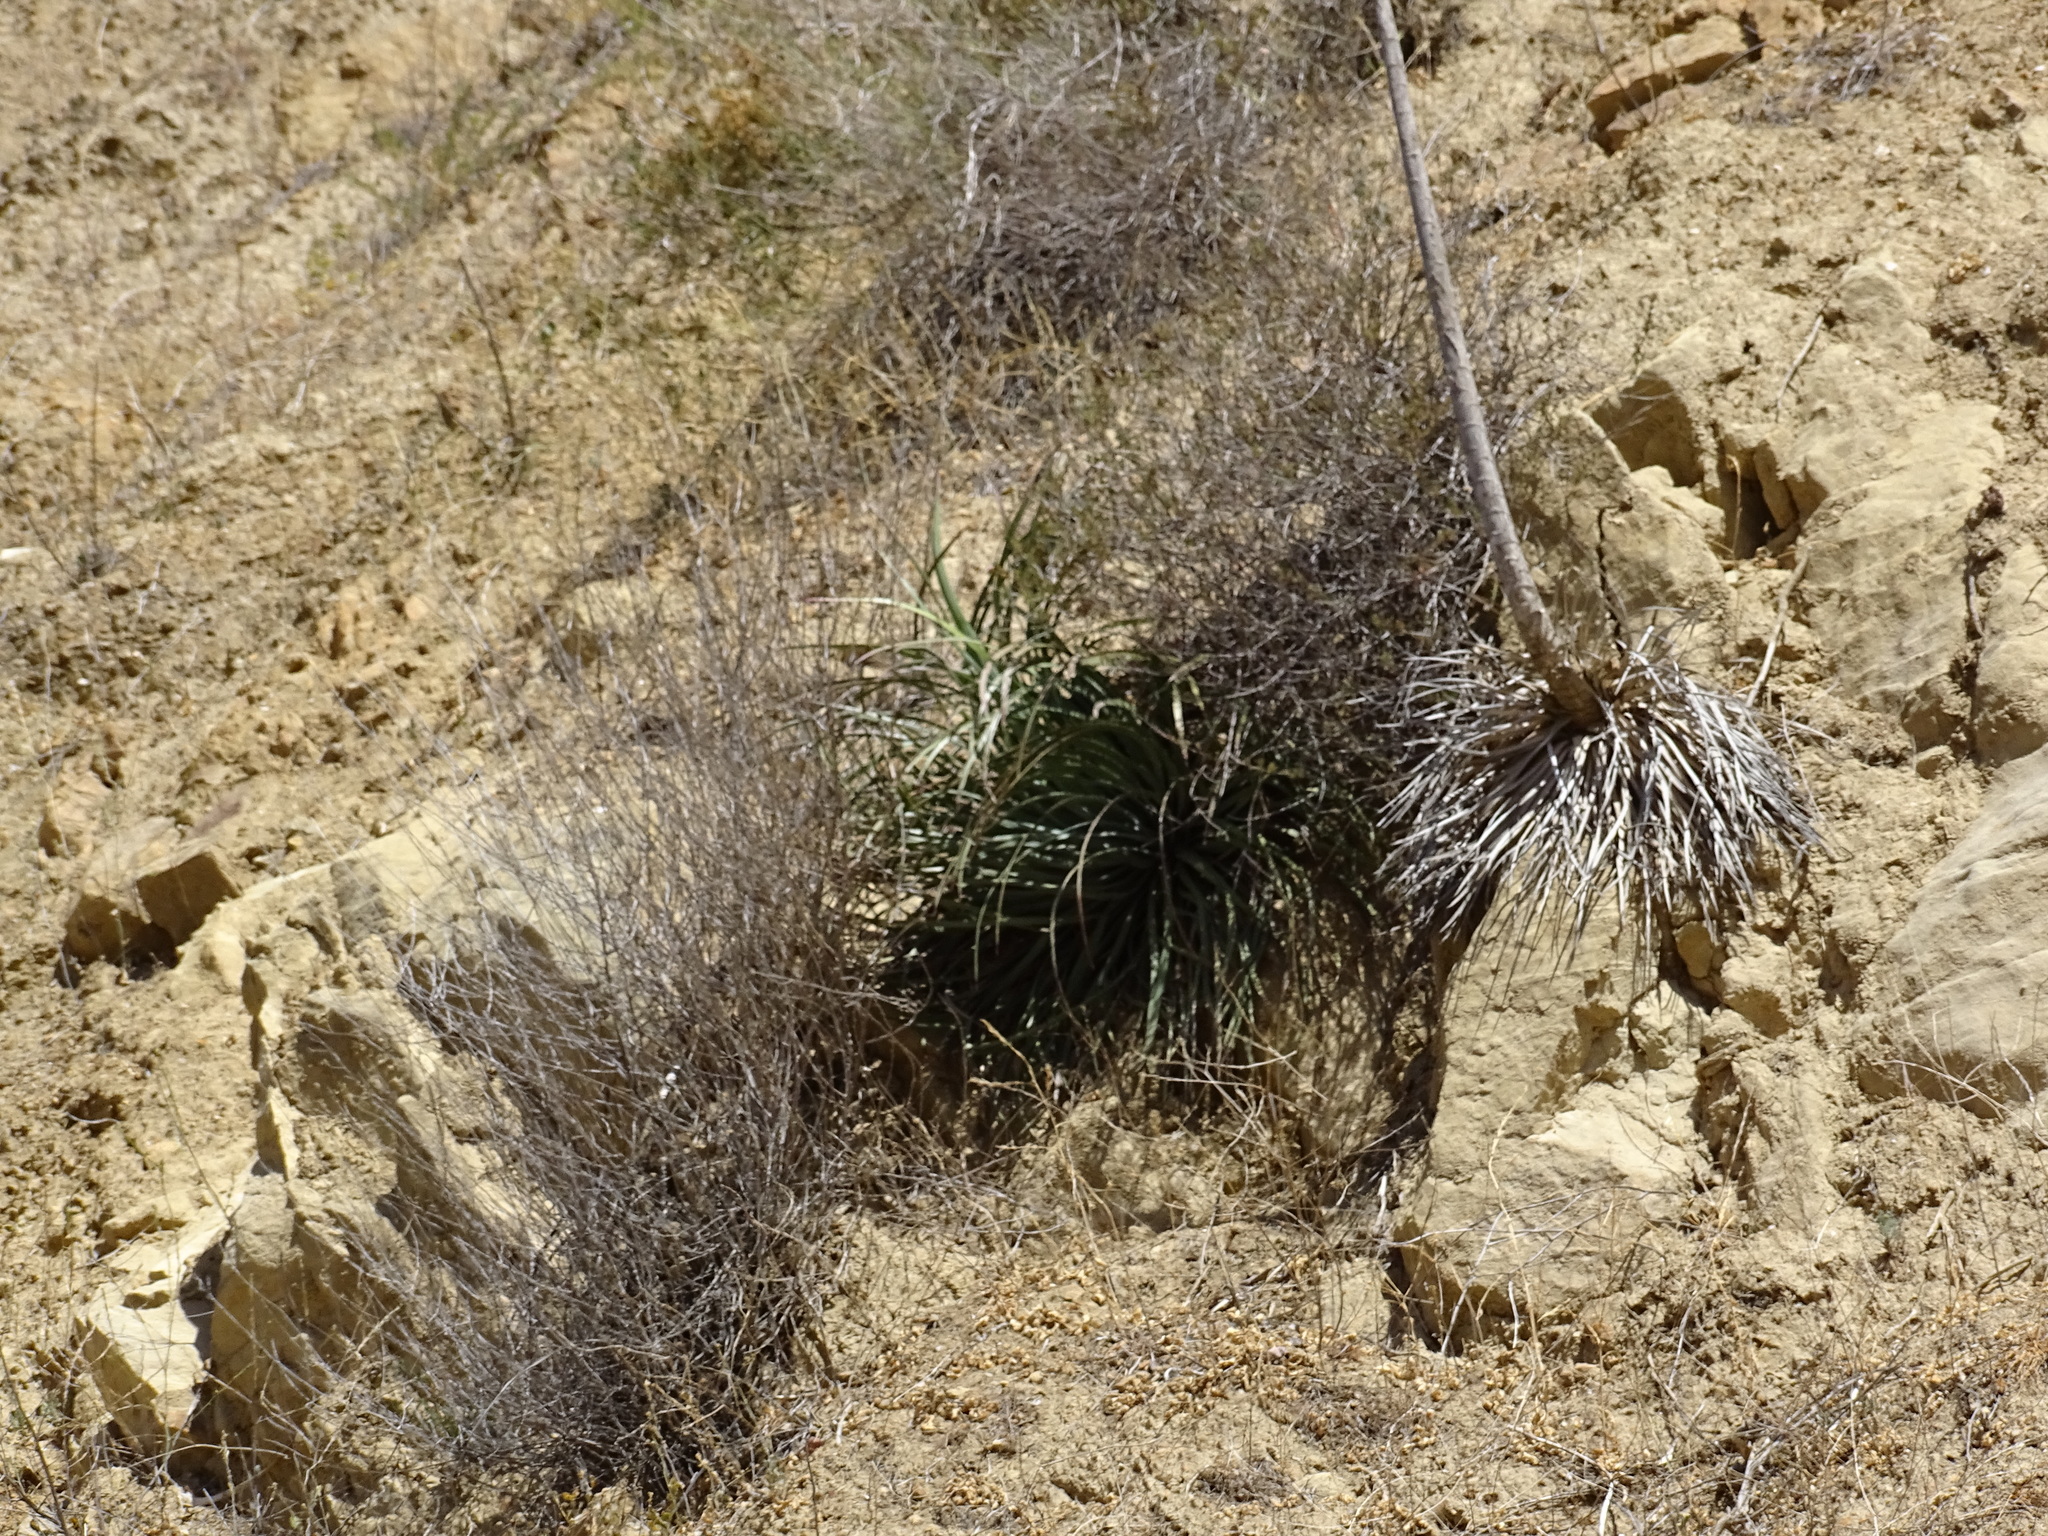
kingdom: Plantae
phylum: Tracheophyta
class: Liliopsida
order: Asparagales
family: Asparagaceae
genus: Hesperoyucca
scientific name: Hesperoyucca whipplei
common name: Our lord's-candle
